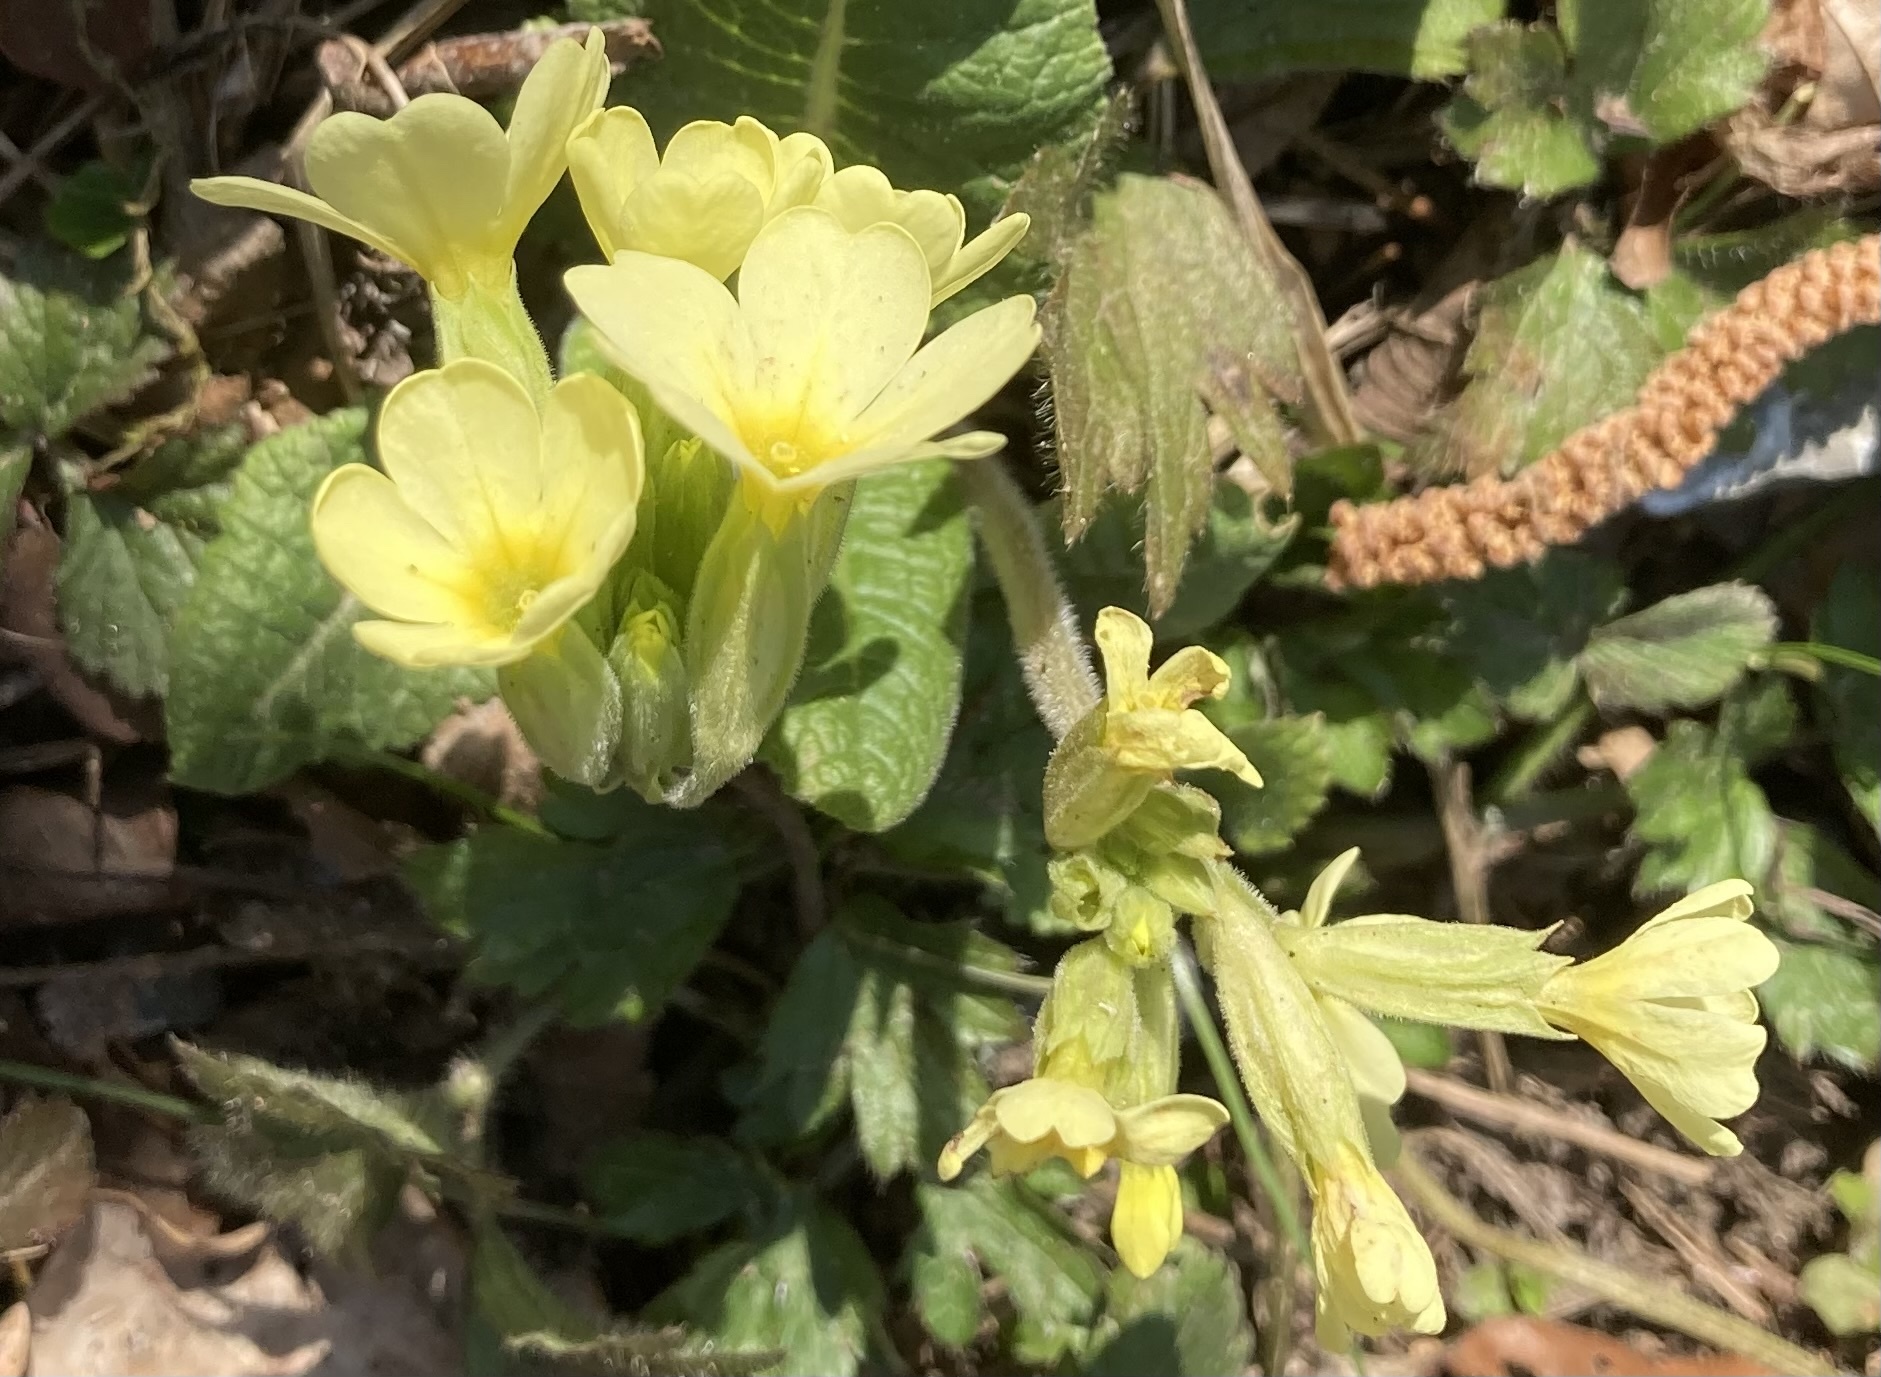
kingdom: Plantae
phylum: Tracheophyta
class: Magnoliopsida
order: Ericales
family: Primulaceae
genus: Primula
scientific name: Primula elatior
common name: Oxlip
